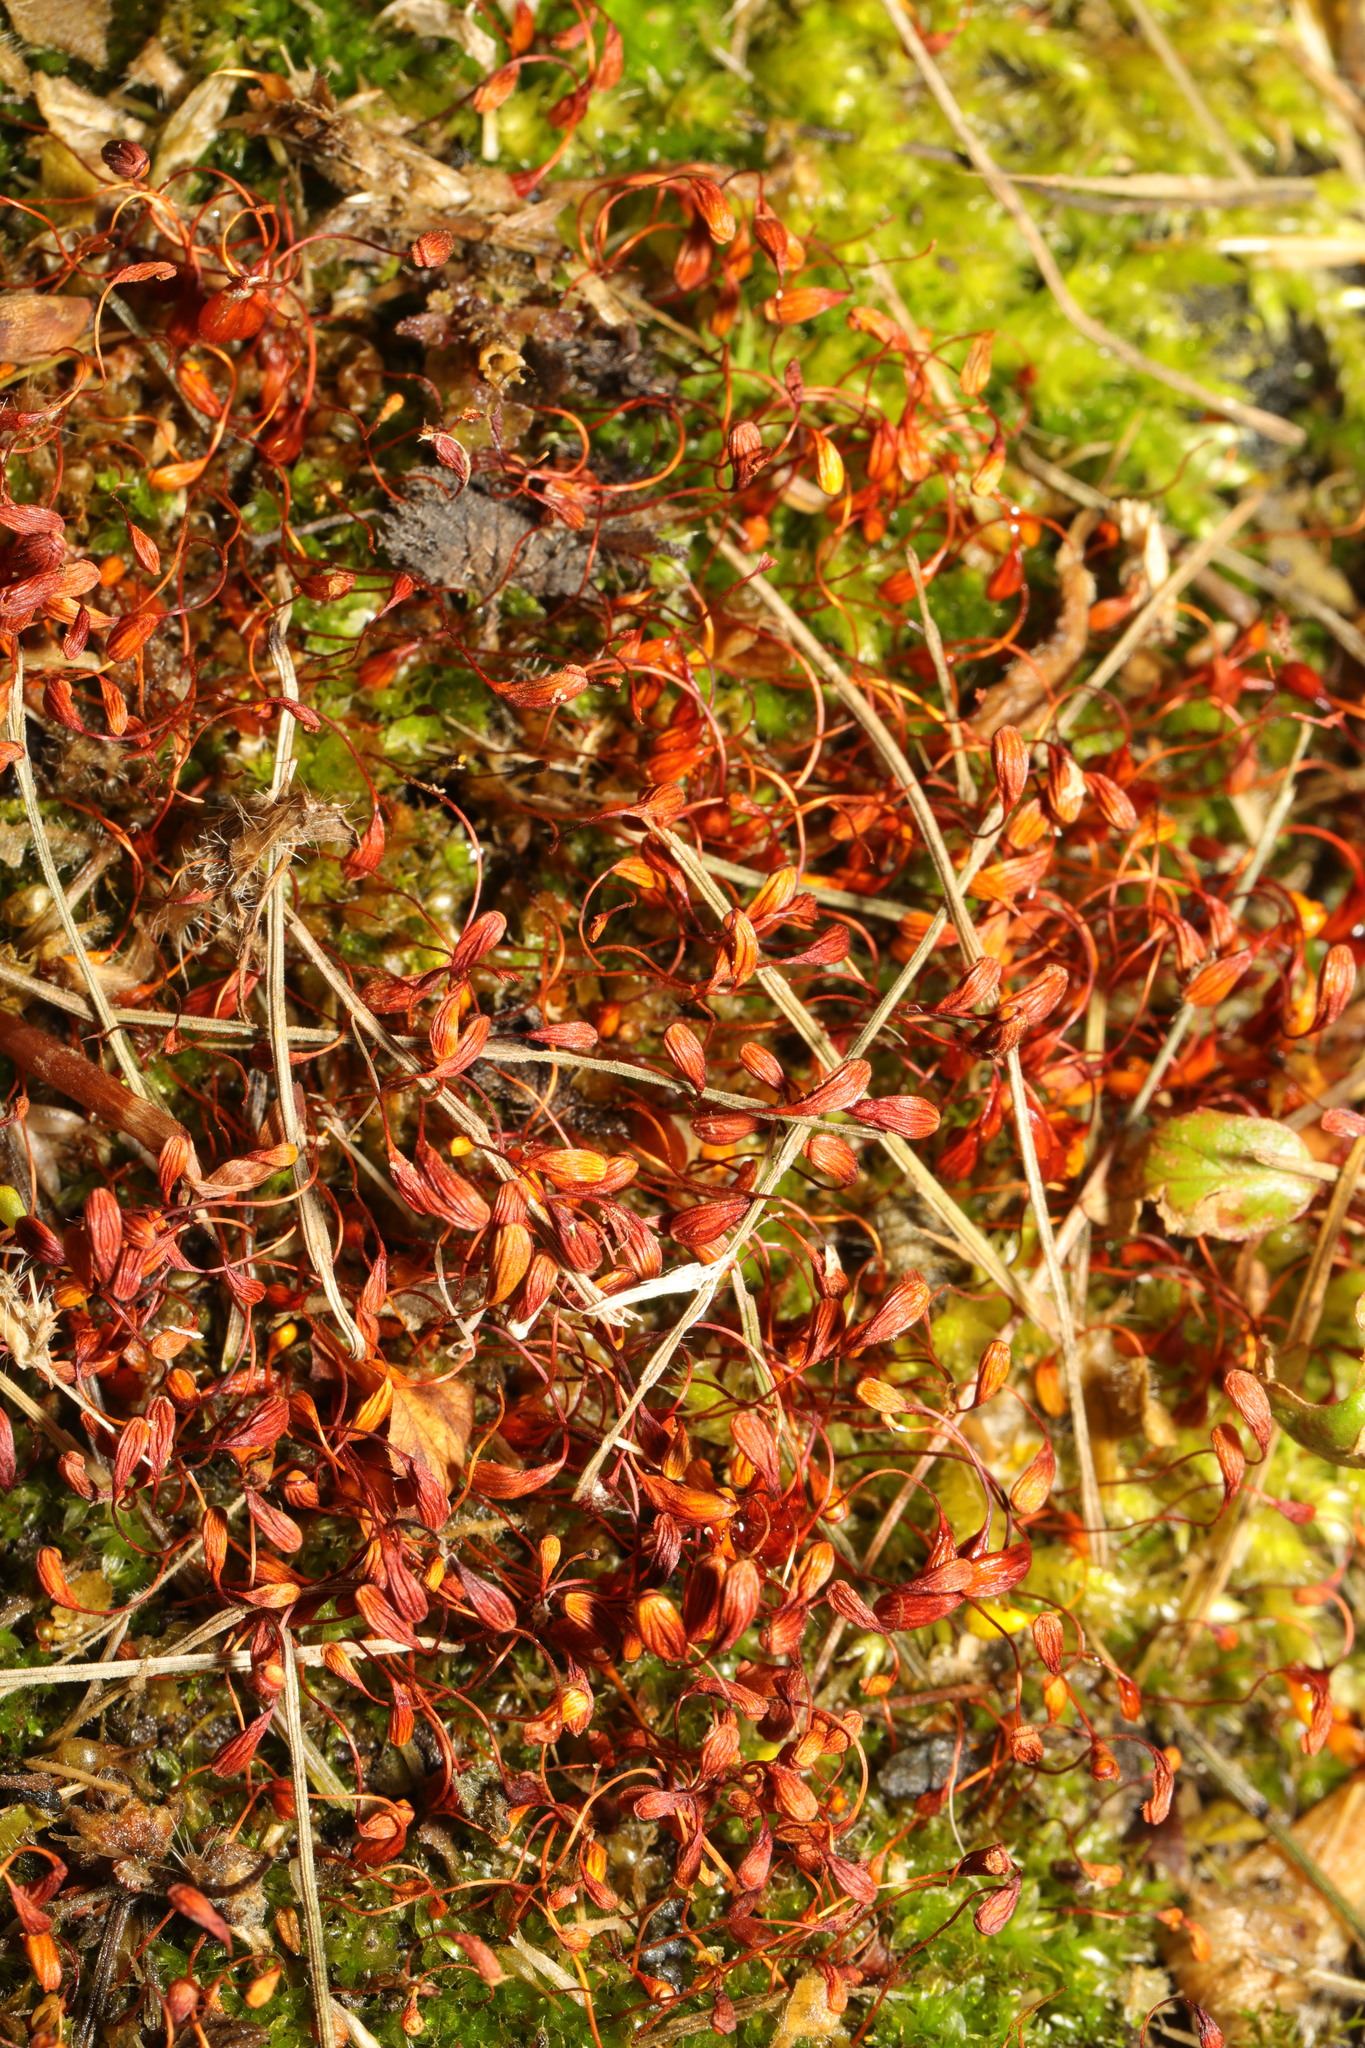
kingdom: Plantae
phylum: Bryophyta
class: Bryopsida
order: Funariales
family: Funariaceae
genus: Funaria
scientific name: Funaria hygrometrica
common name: Common cord moss
